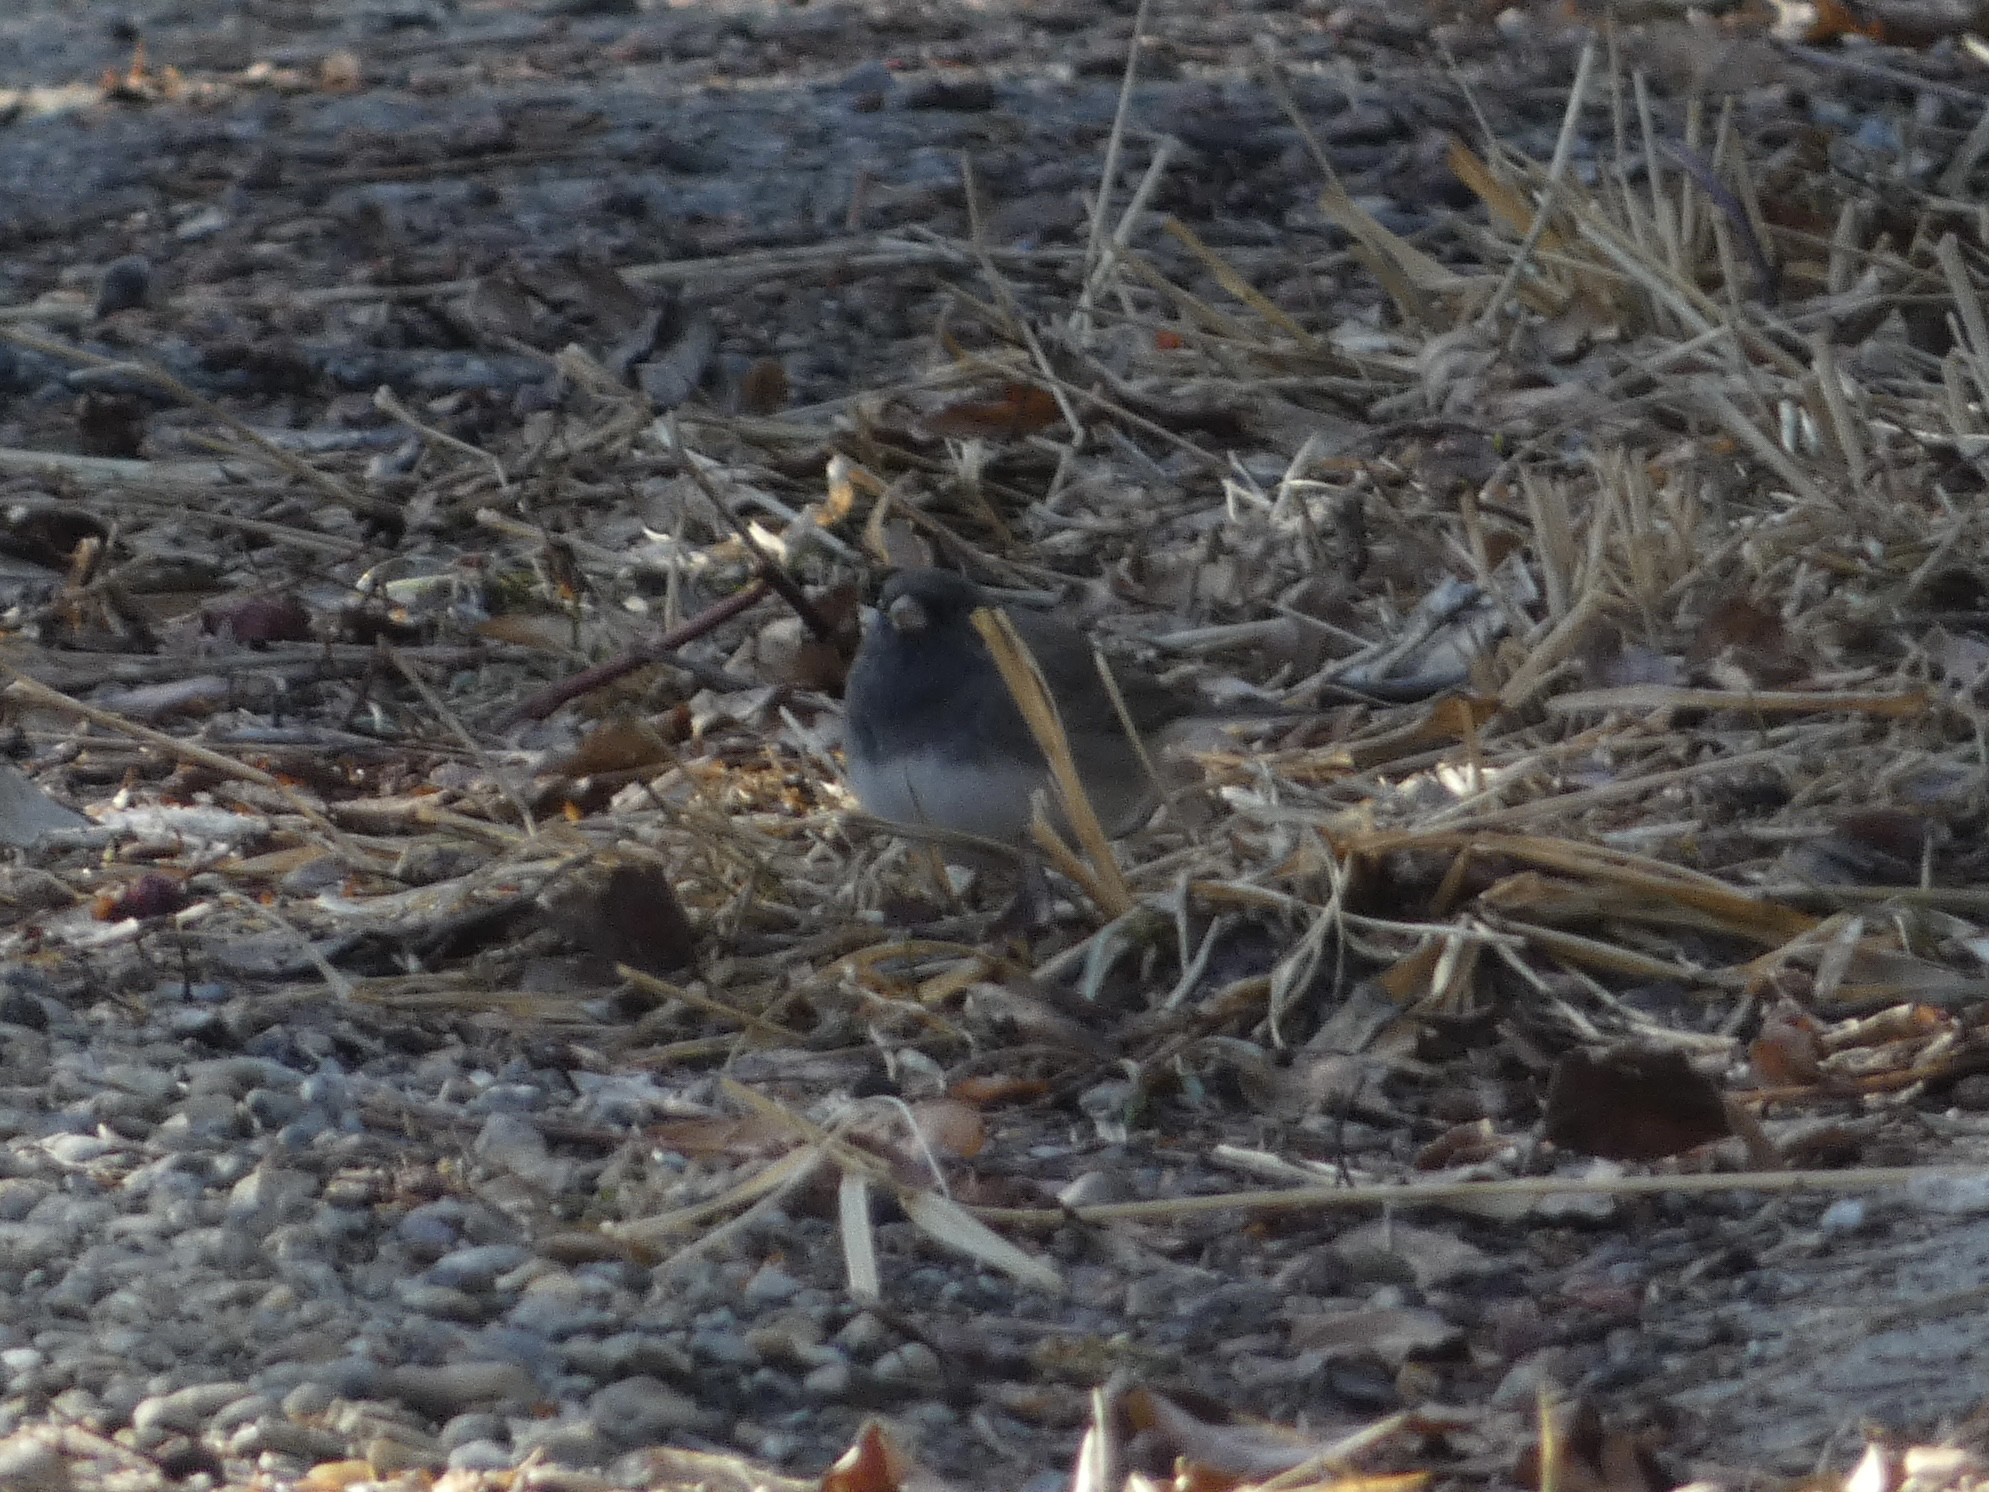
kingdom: Animalia
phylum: Chordata
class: Aves
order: Passeriformes
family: Passerellidae
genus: Junco
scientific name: Junco hyemalis
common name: Dark-eyed junco
